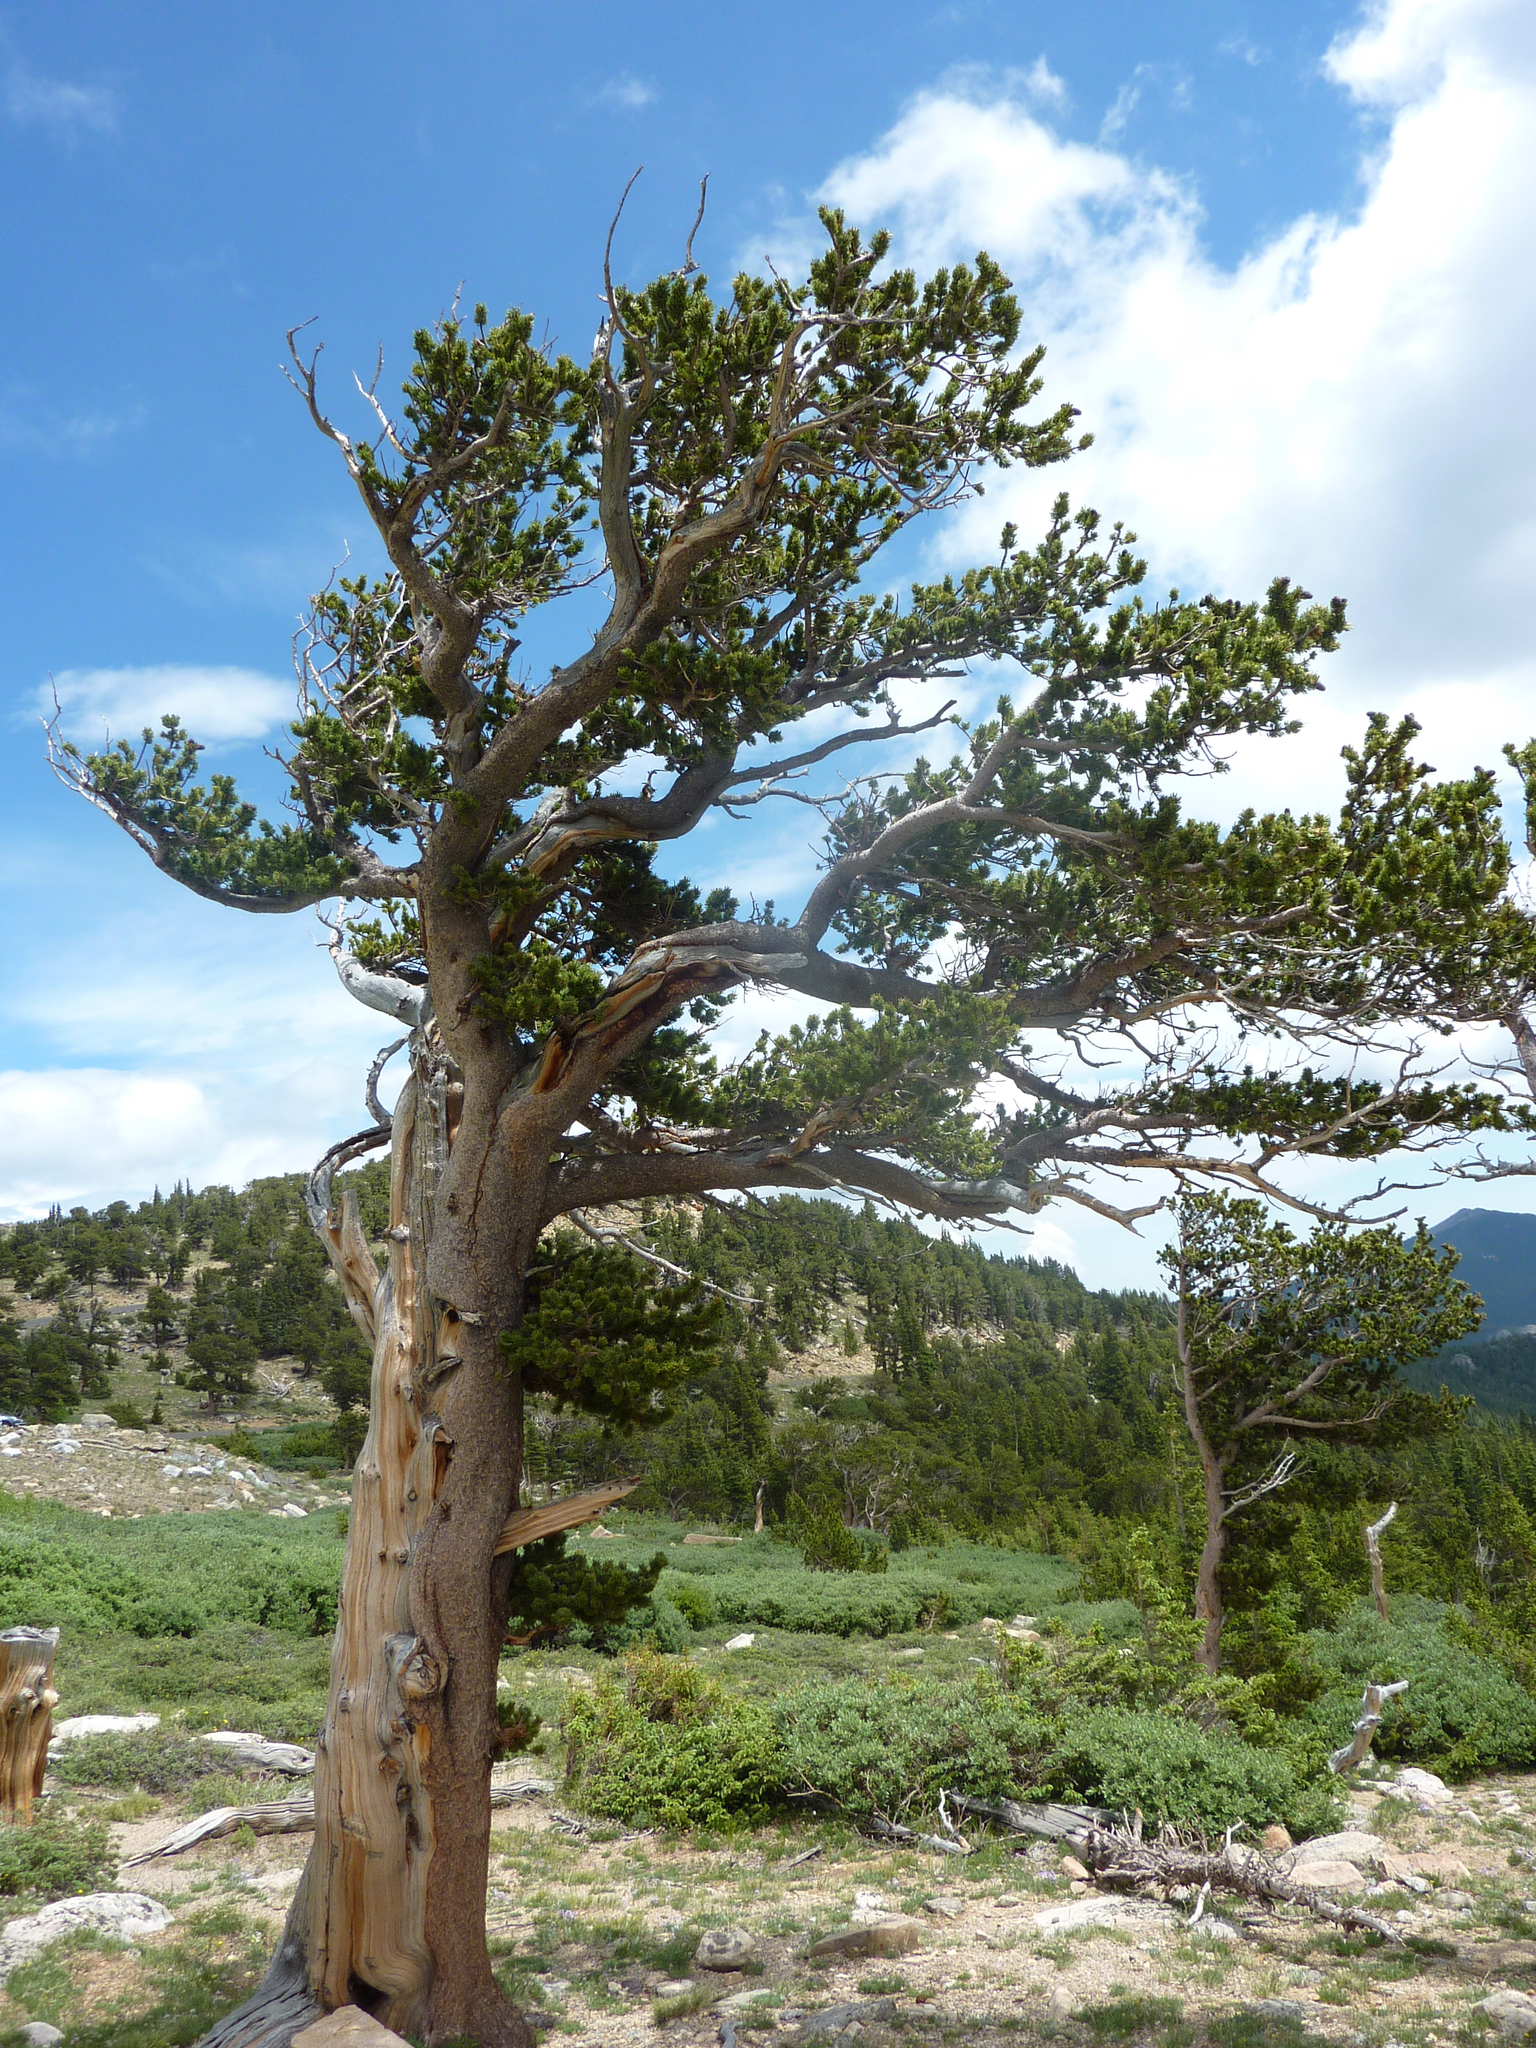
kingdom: Plantae
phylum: Tracheophyta
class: Pinopsida
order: Pinales
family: Pinaceae
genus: Pinus
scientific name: Pinus aristata
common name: Colorado bristlecone pine
